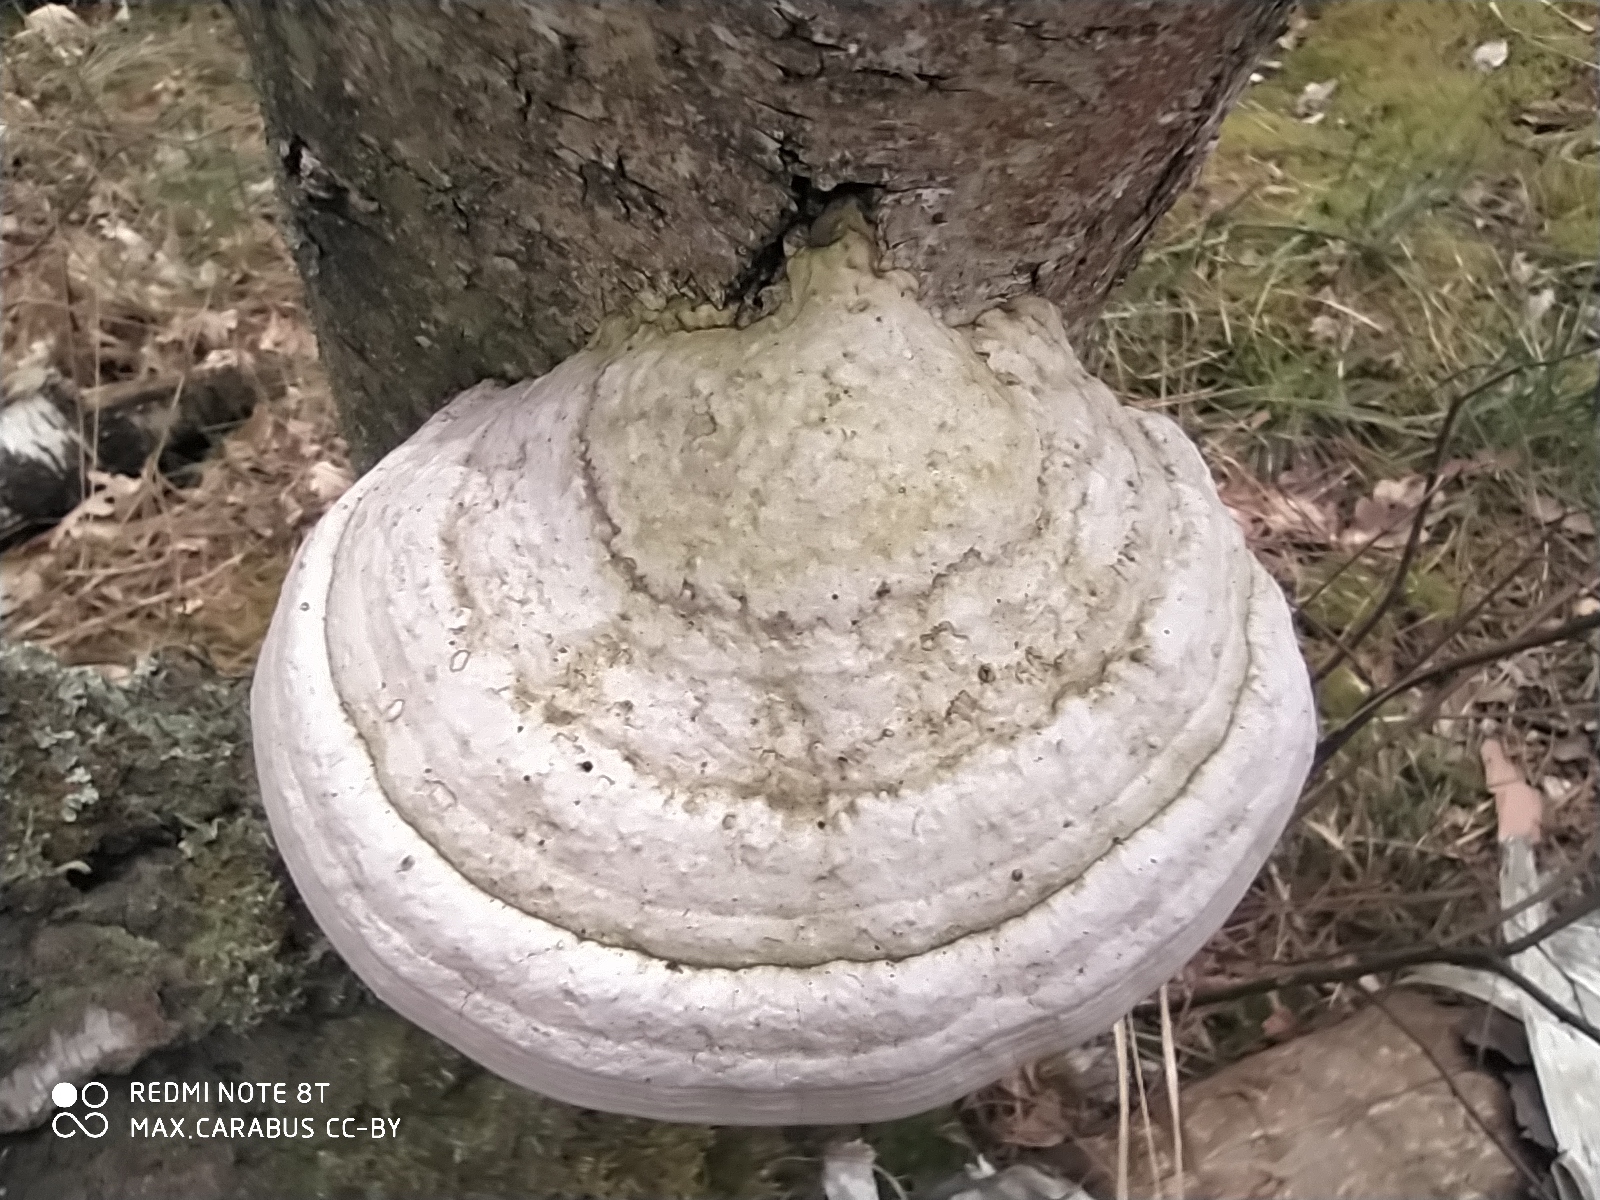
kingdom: Fungi
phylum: Basidiomycota
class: Agaricomycetes
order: Polyporales
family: Polyporaceae
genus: Fomes
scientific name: Fomes fomentarius
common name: Hoof fungus
